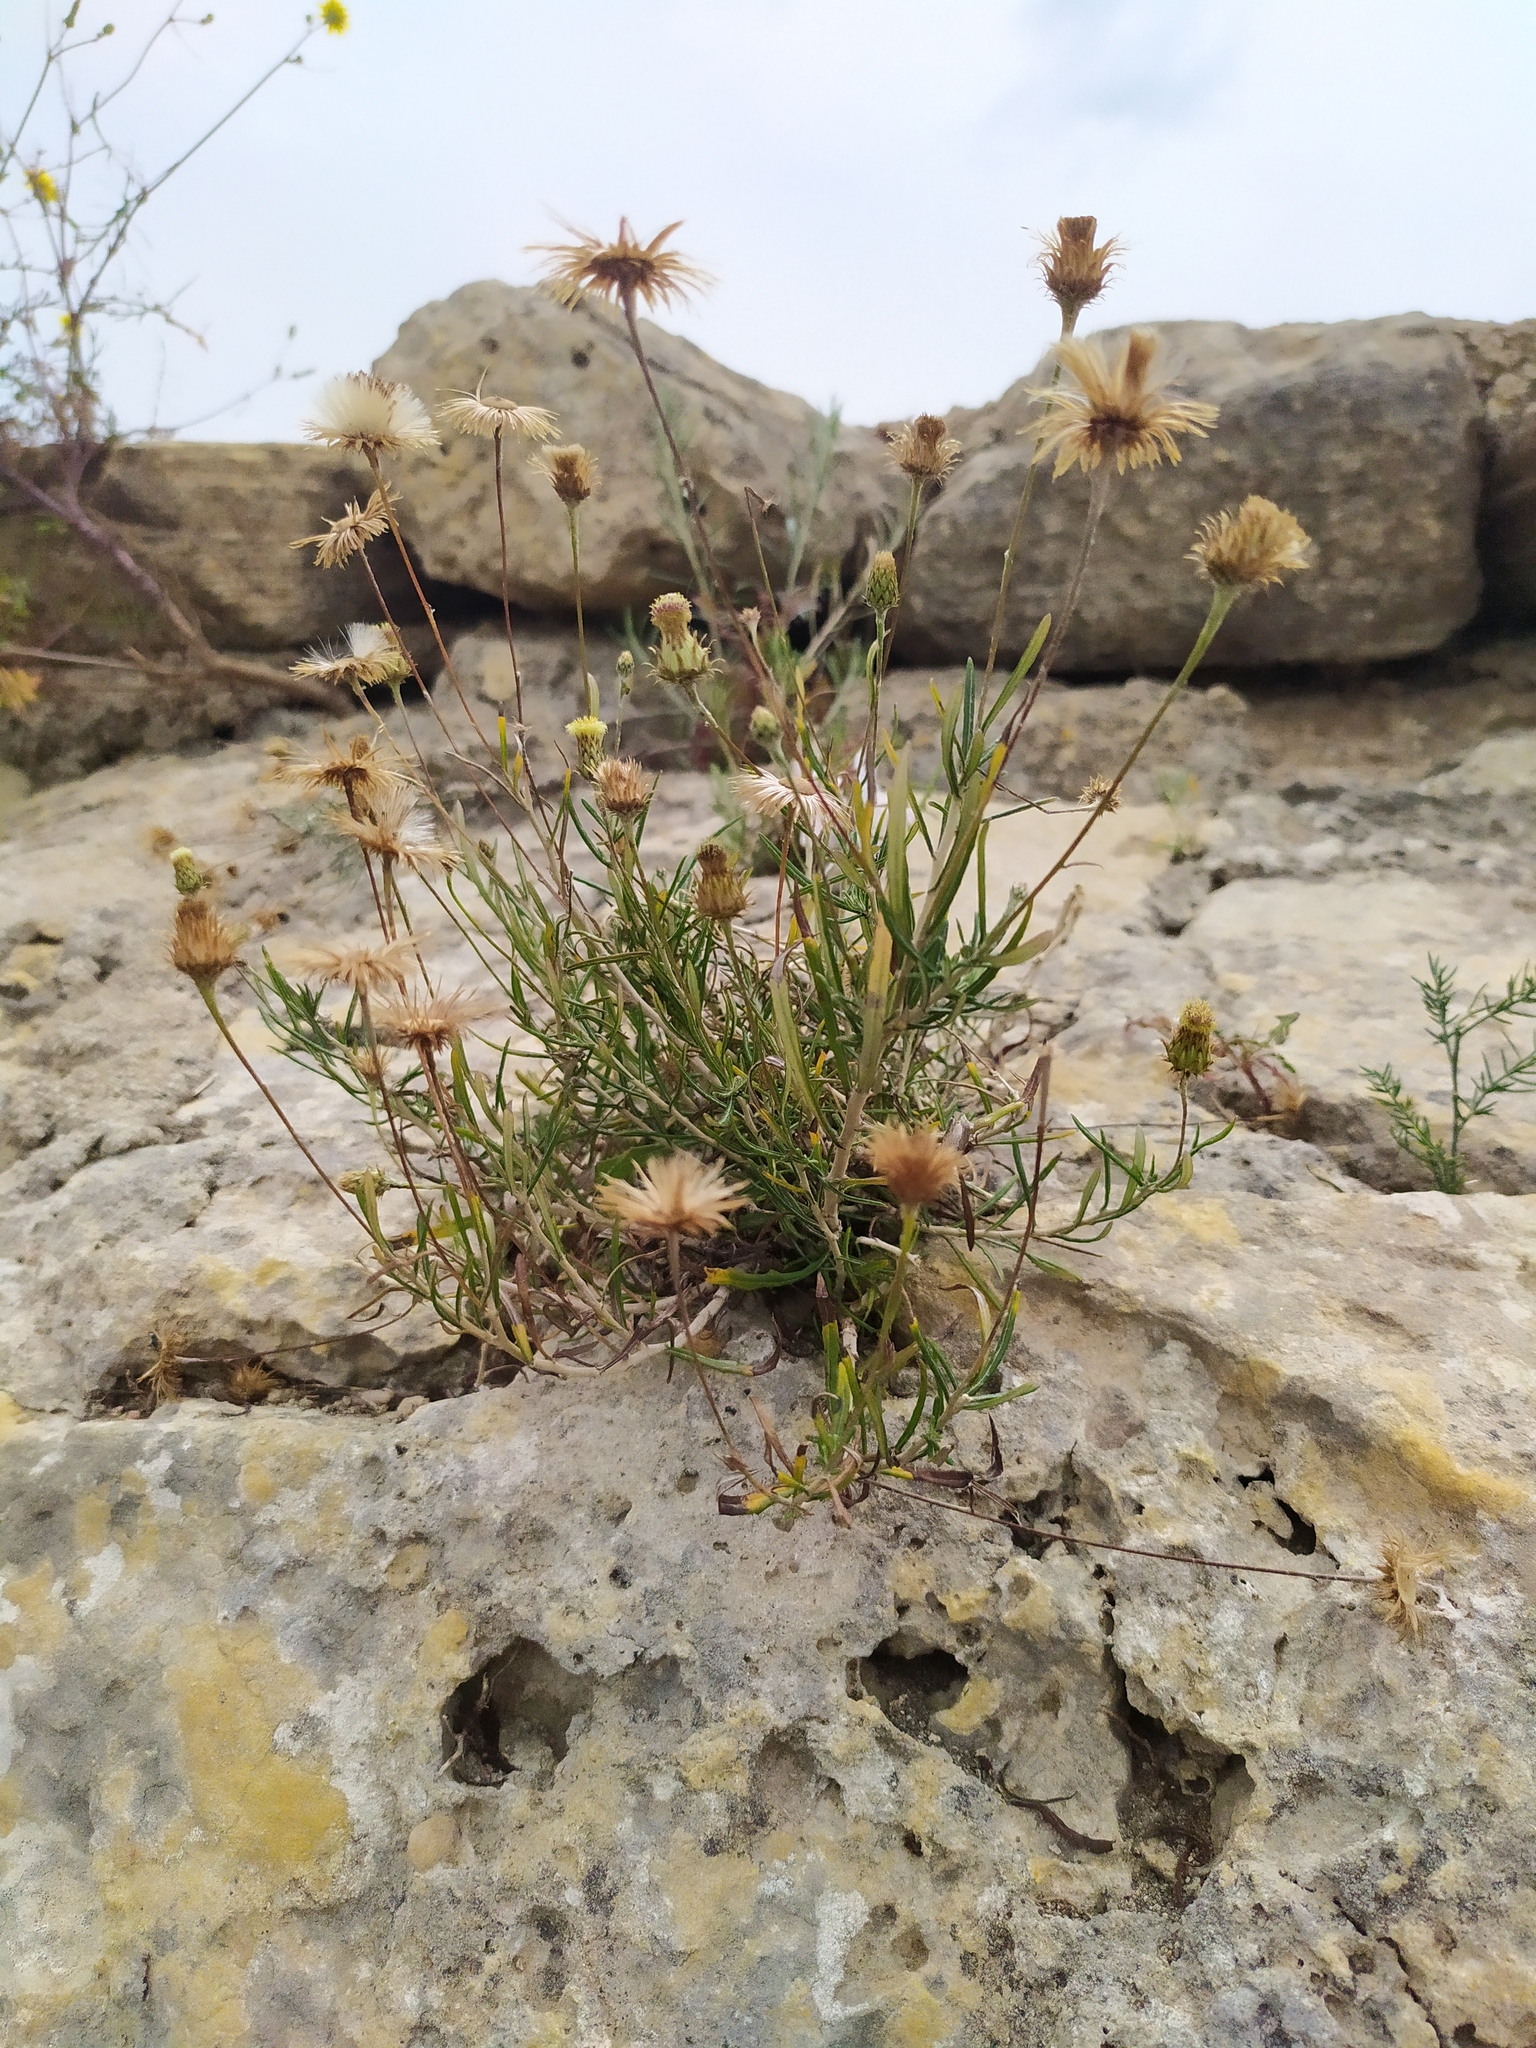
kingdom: Plantae
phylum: Tracheophyta
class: Magnoliopsida
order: Asterales
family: Asteraceae
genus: Phagnalon
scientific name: Phagnalon saxatile
